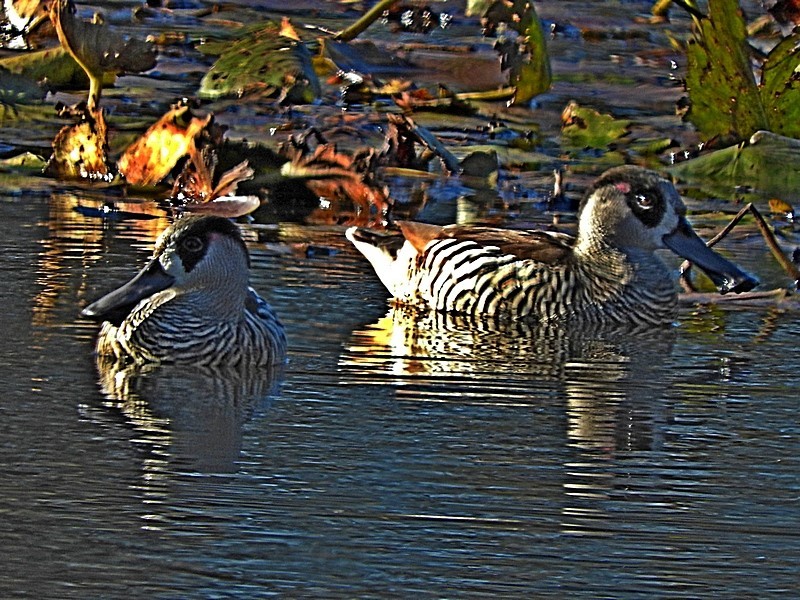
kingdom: Animalia
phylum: Chordata
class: Aves
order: Anseriformes
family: Anatidae
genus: Malacorhynchus
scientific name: Malacorhynchus membranaceus
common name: Pink-eared duck
